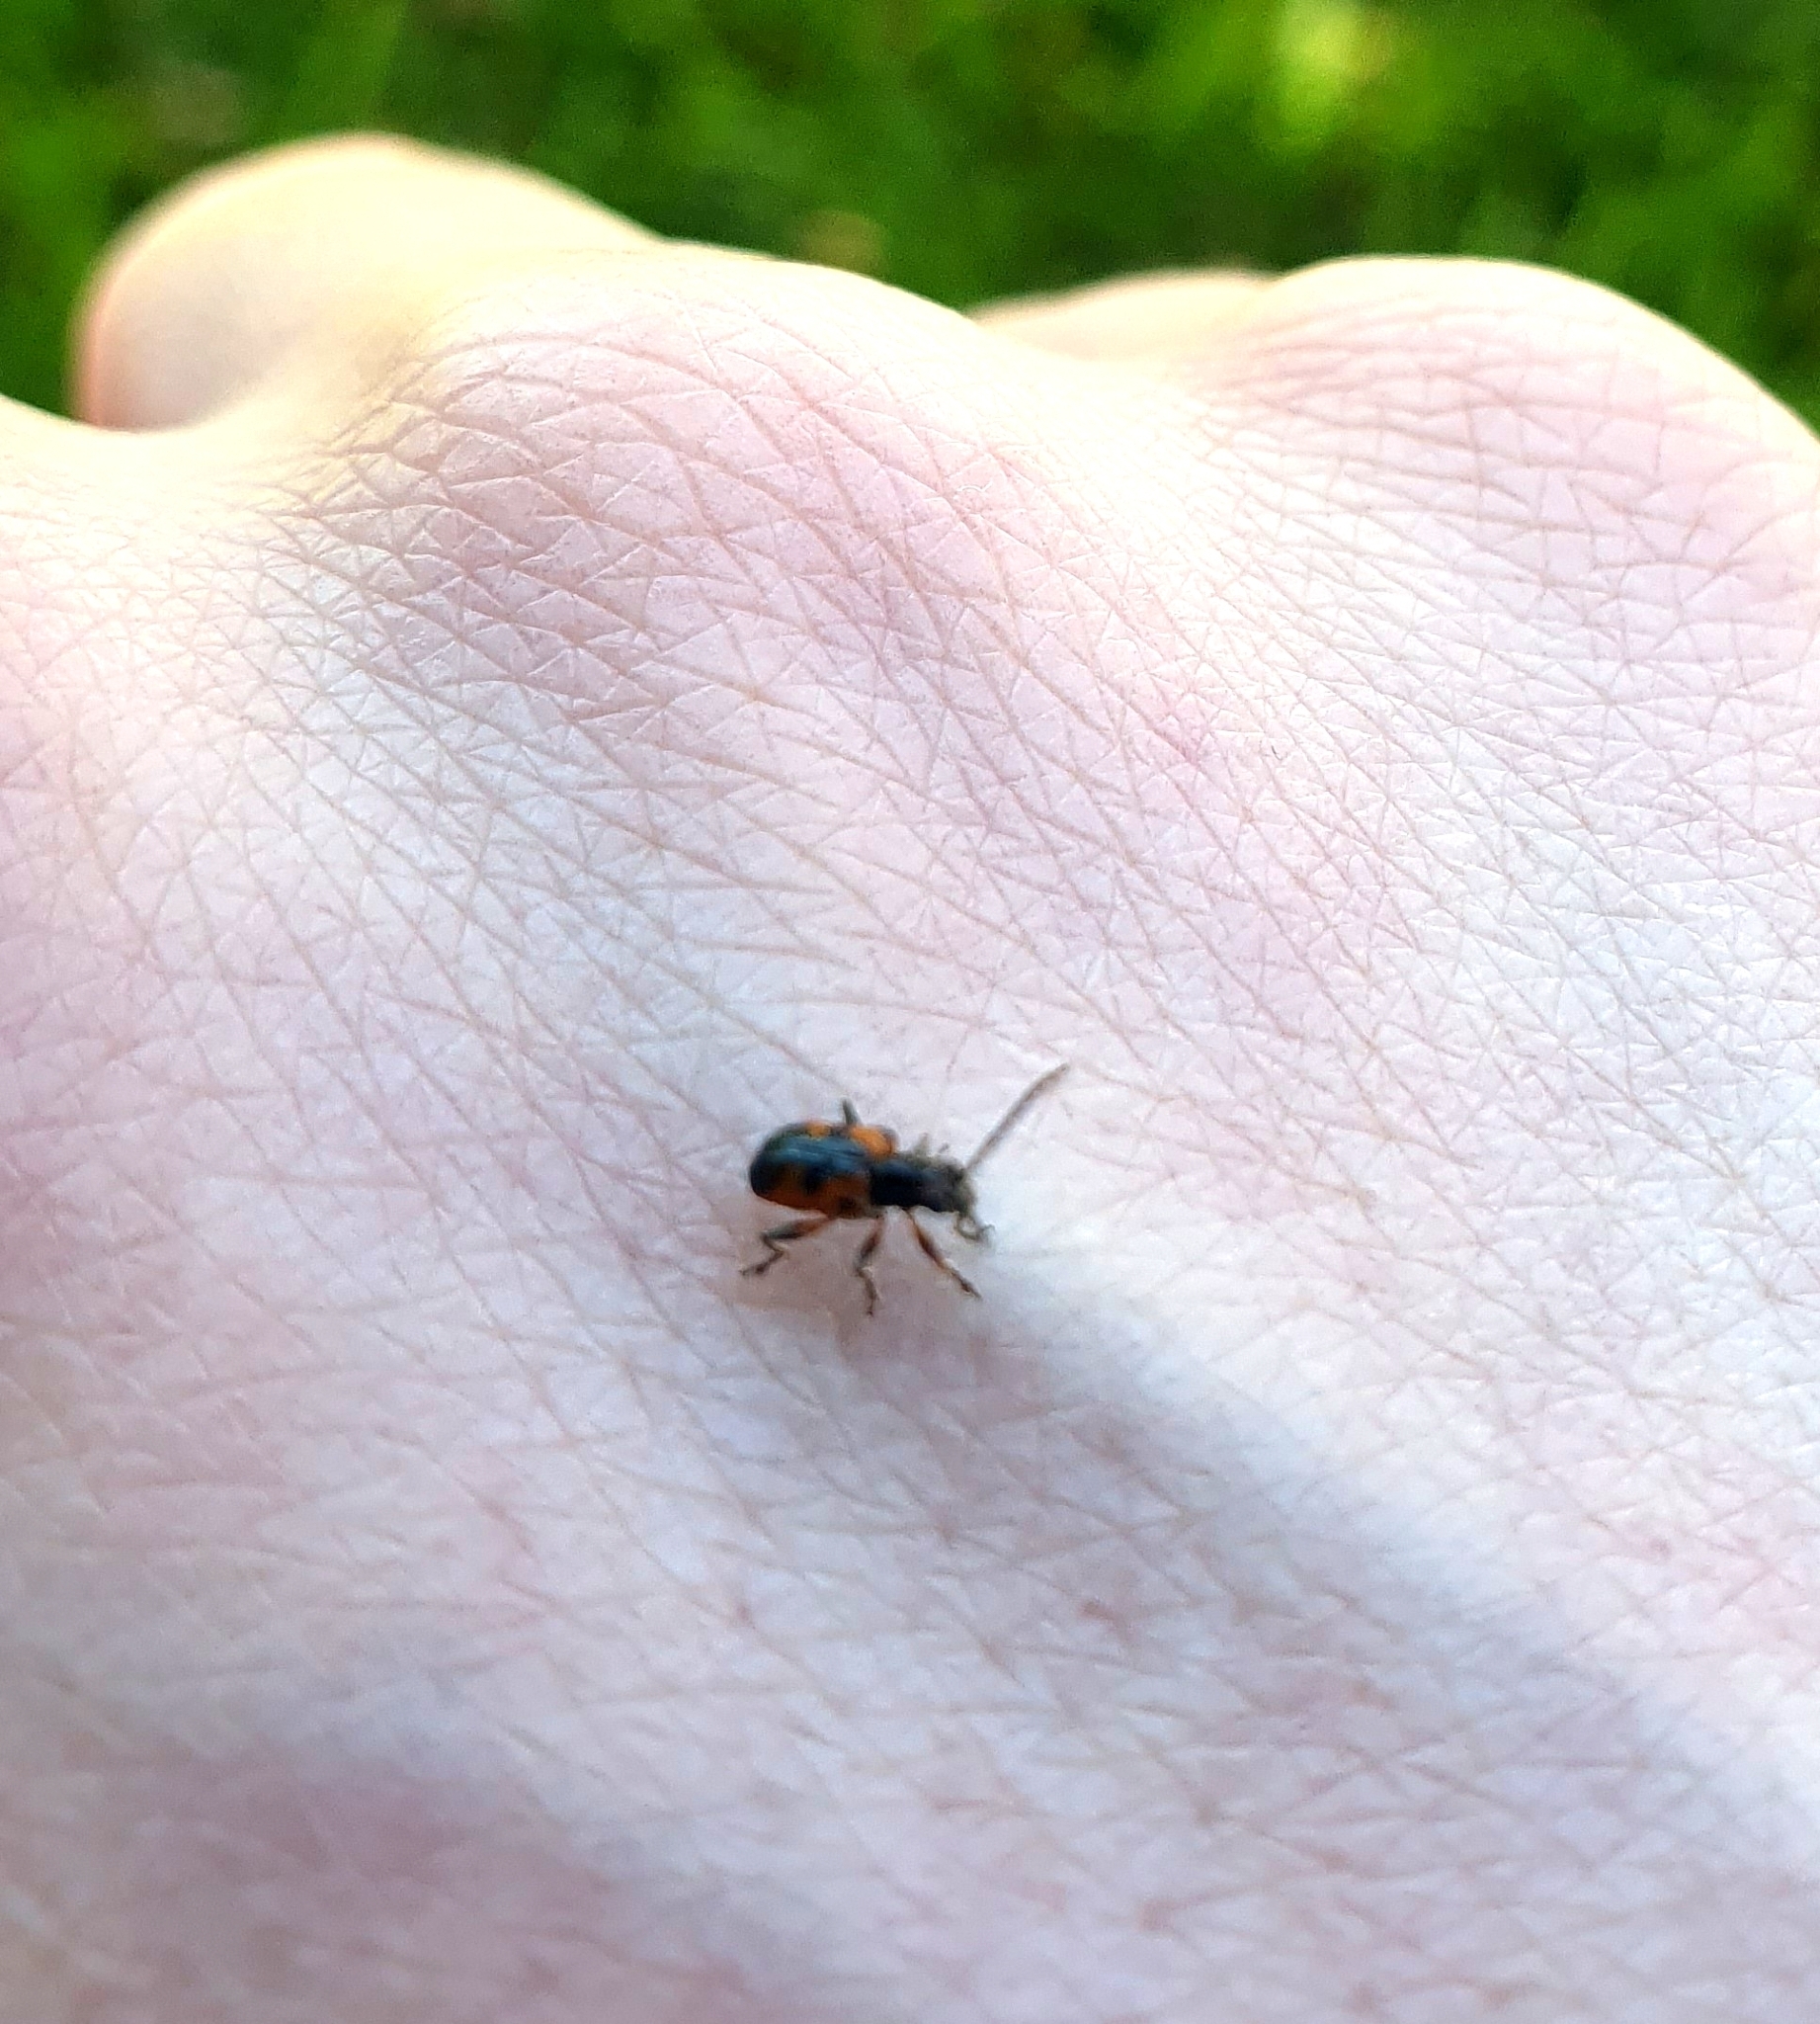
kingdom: Animalia
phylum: Arthropoda
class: Insecta
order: Coleoptera
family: Chrysomelidae
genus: Neolema
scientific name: Neolema dorsalis
